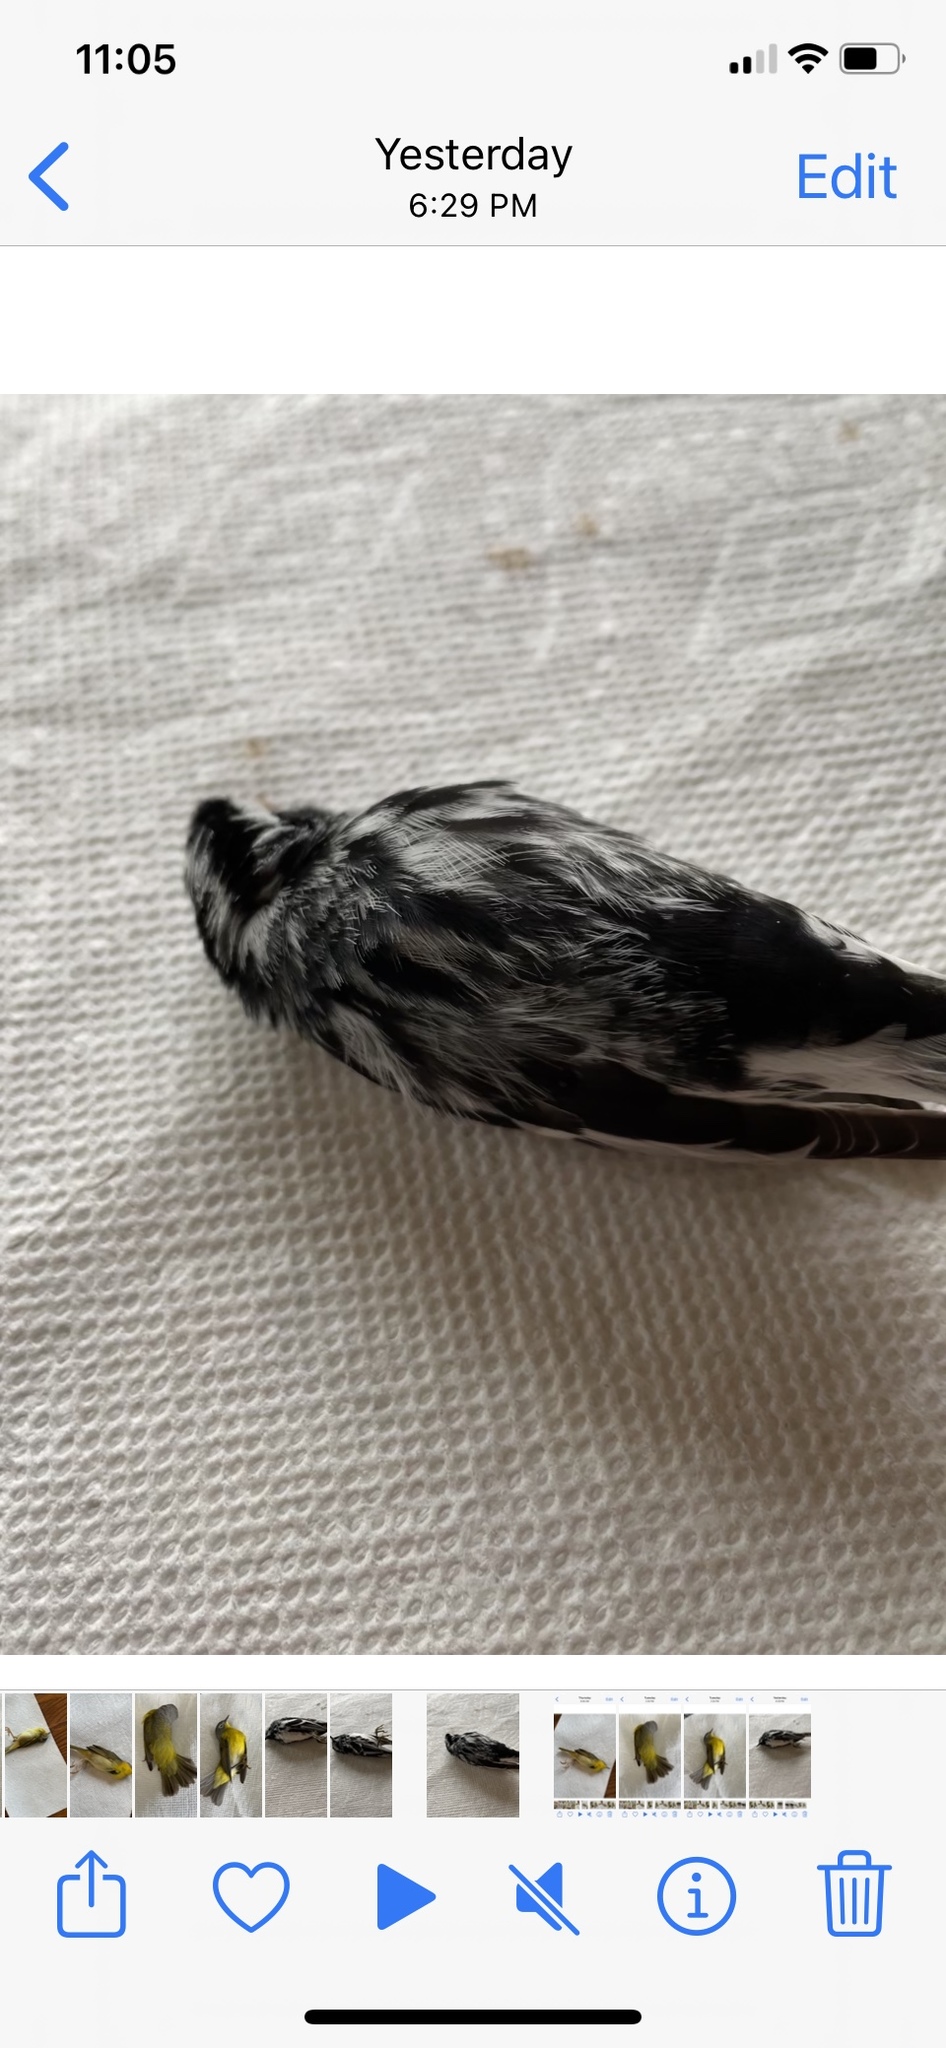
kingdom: Animalia
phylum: Chordata
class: Aves
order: Passeriformes
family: Parulidae
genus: Mniotilta
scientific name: Mniotilta varia
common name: Black-and-white warbler
